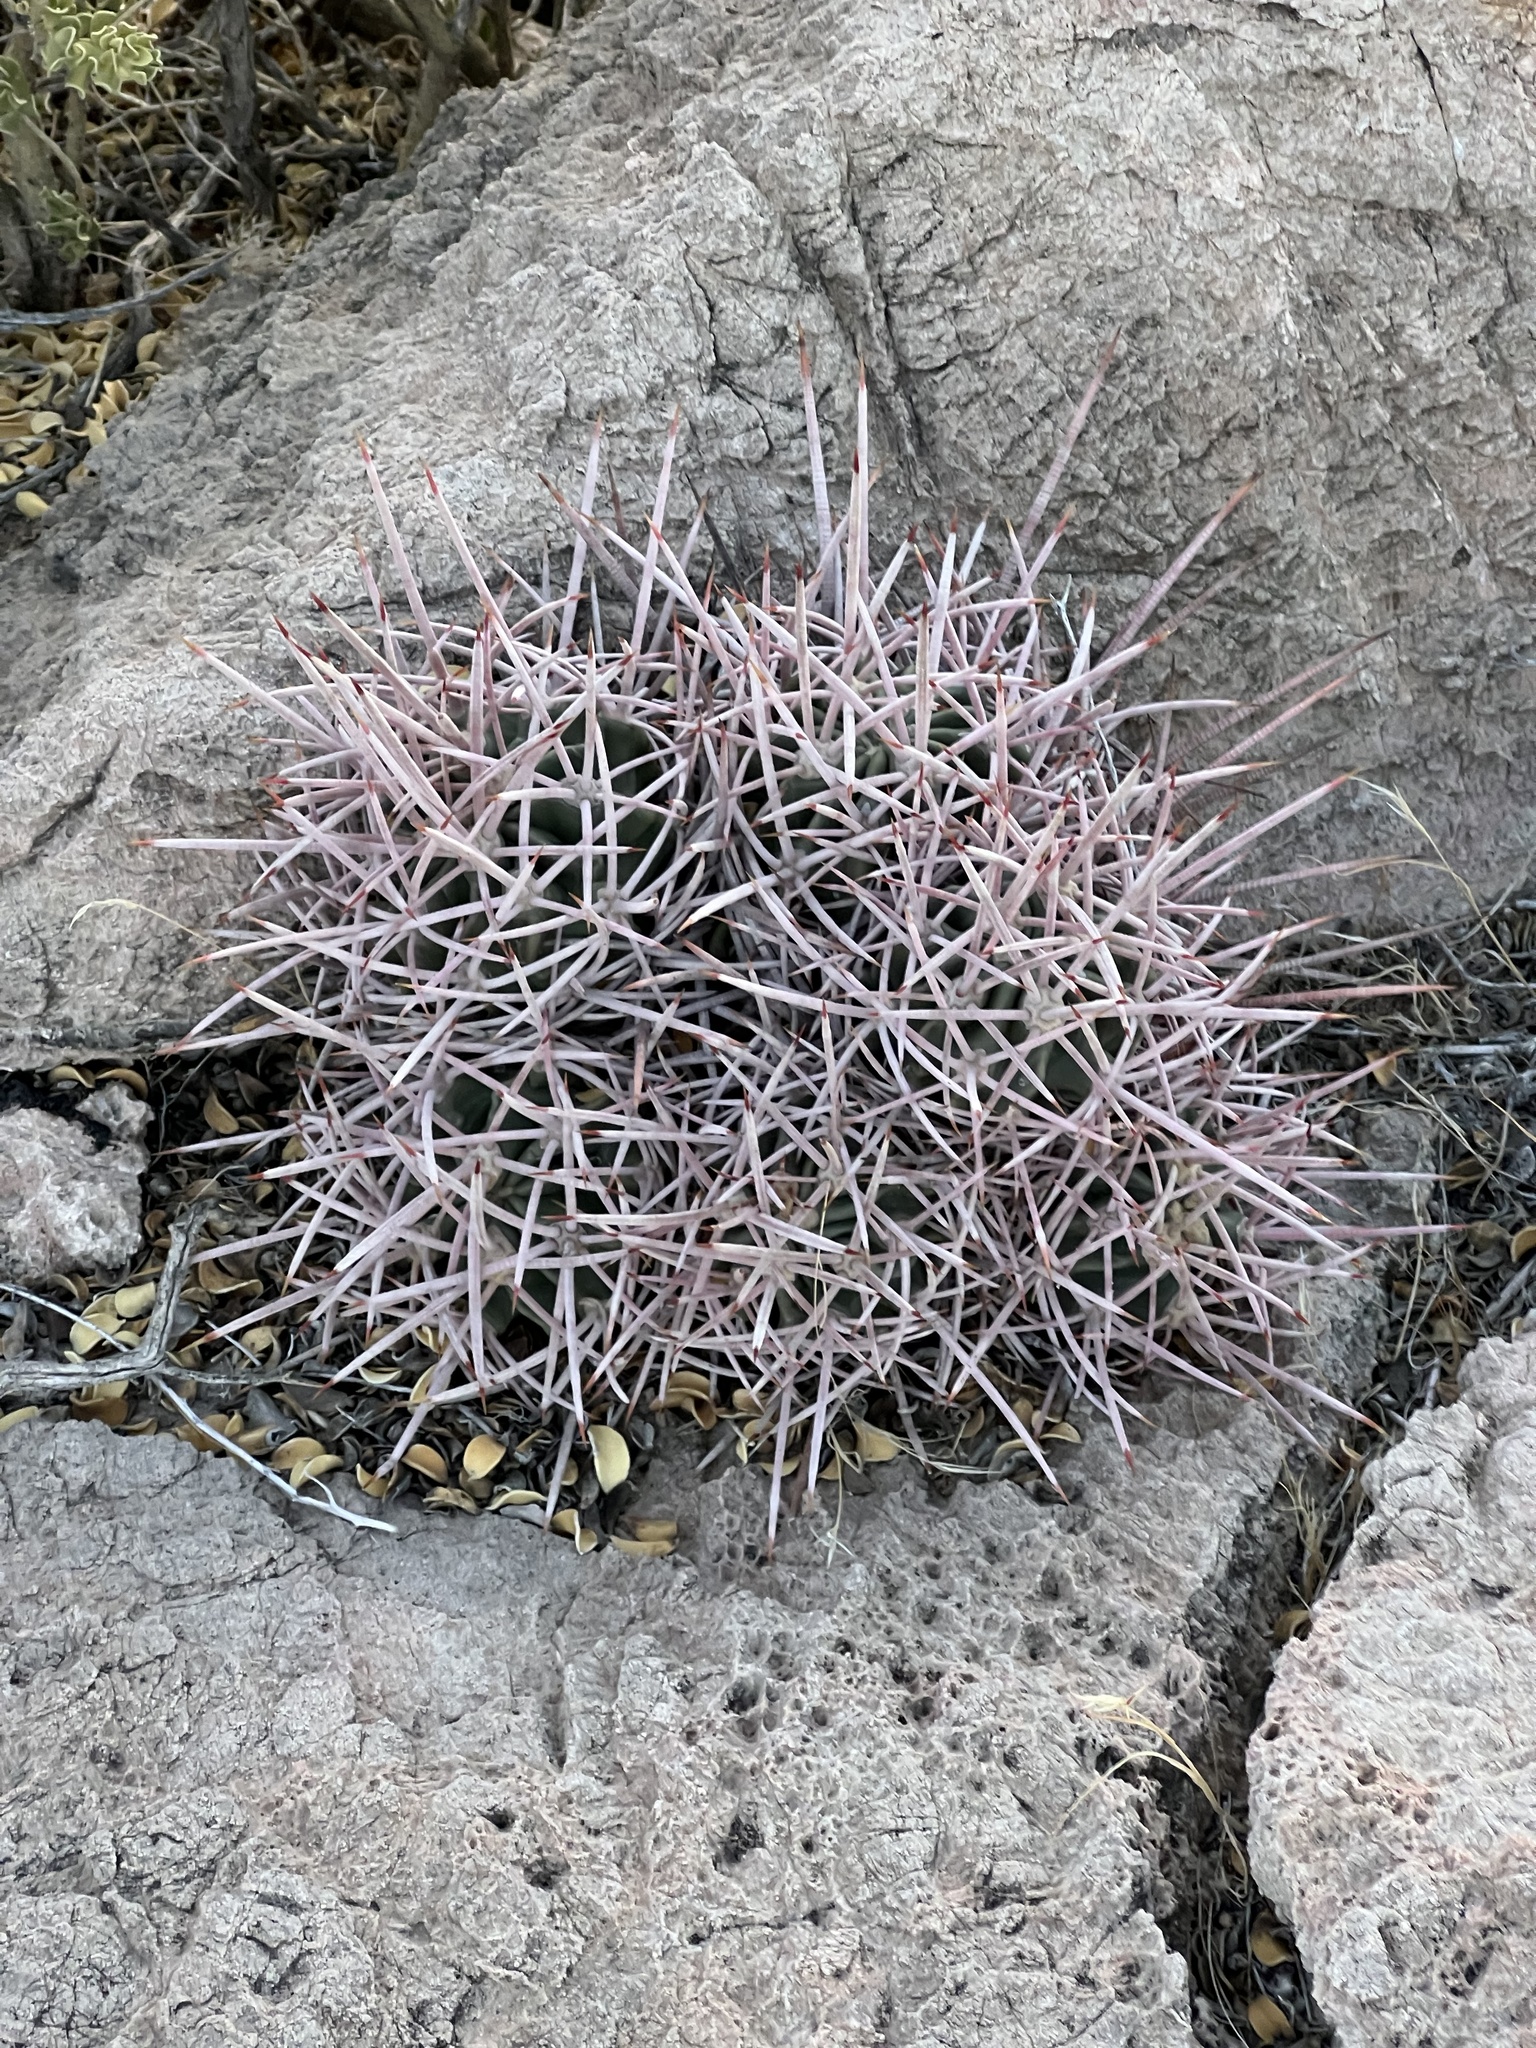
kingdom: Plantae
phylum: Tracheophyta
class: Magnoliopsida
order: Caryophyllales
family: Cactaceae
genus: Echinocactus
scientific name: Echinocactus polycephalus
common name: Cottontop cactus
